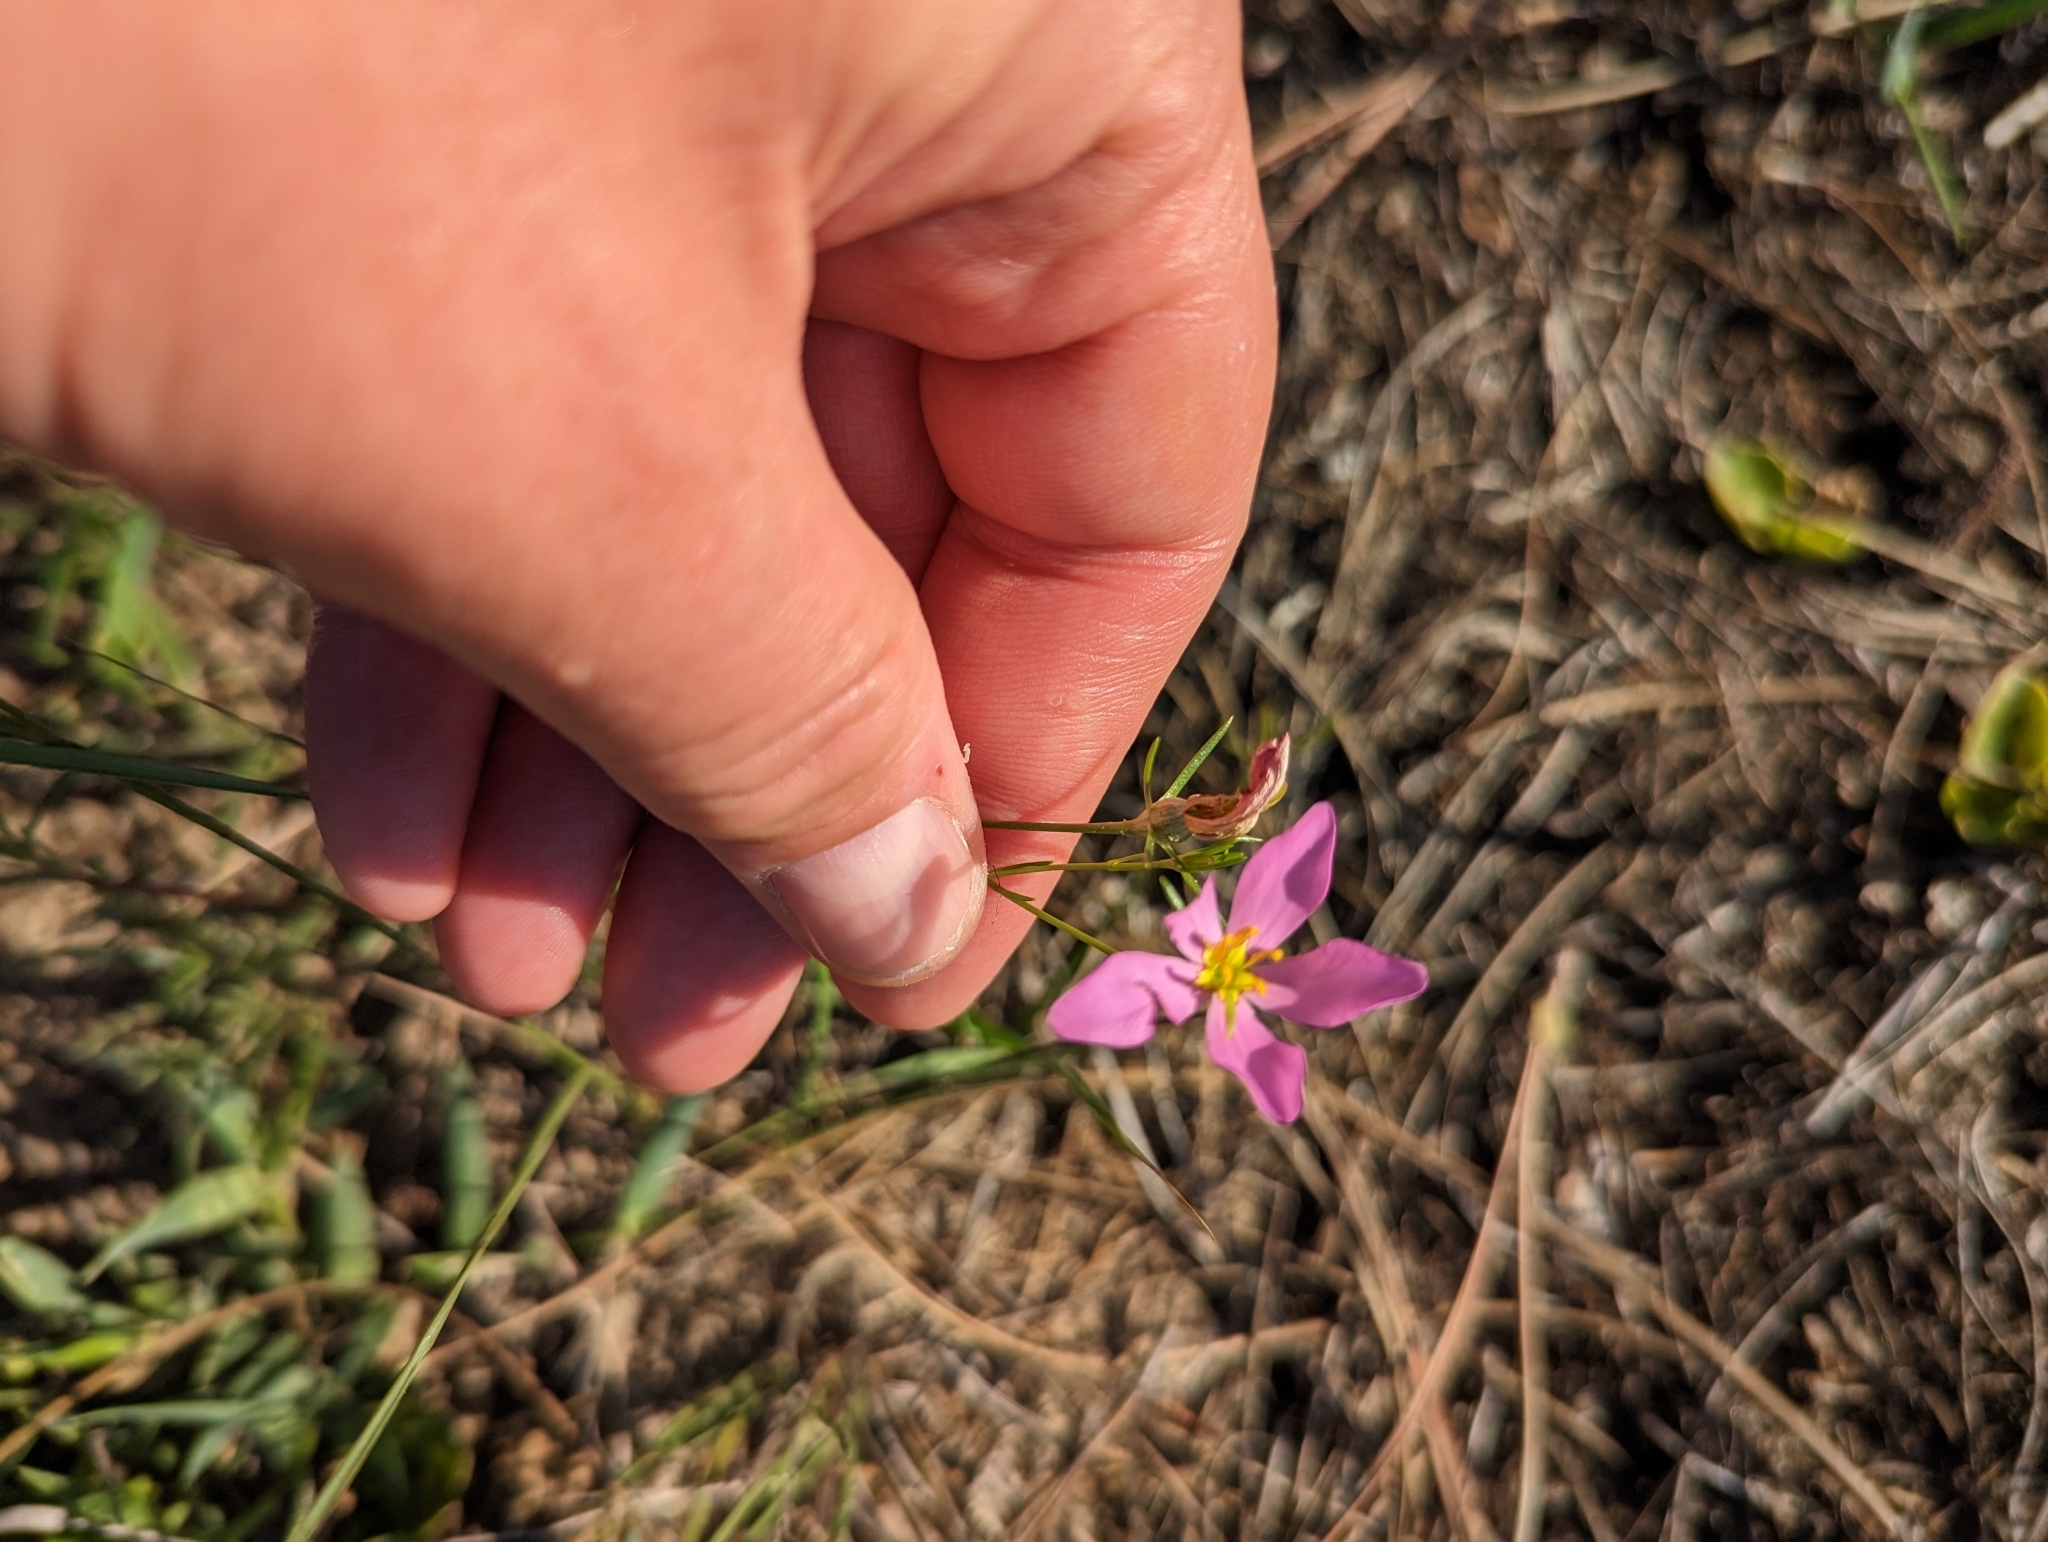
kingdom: Plantae
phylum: Tracheophyta
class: Magnoliopsida
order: Gentianales
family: Gentianaceae
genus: Sabatia
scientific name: Sabatia stellaris
